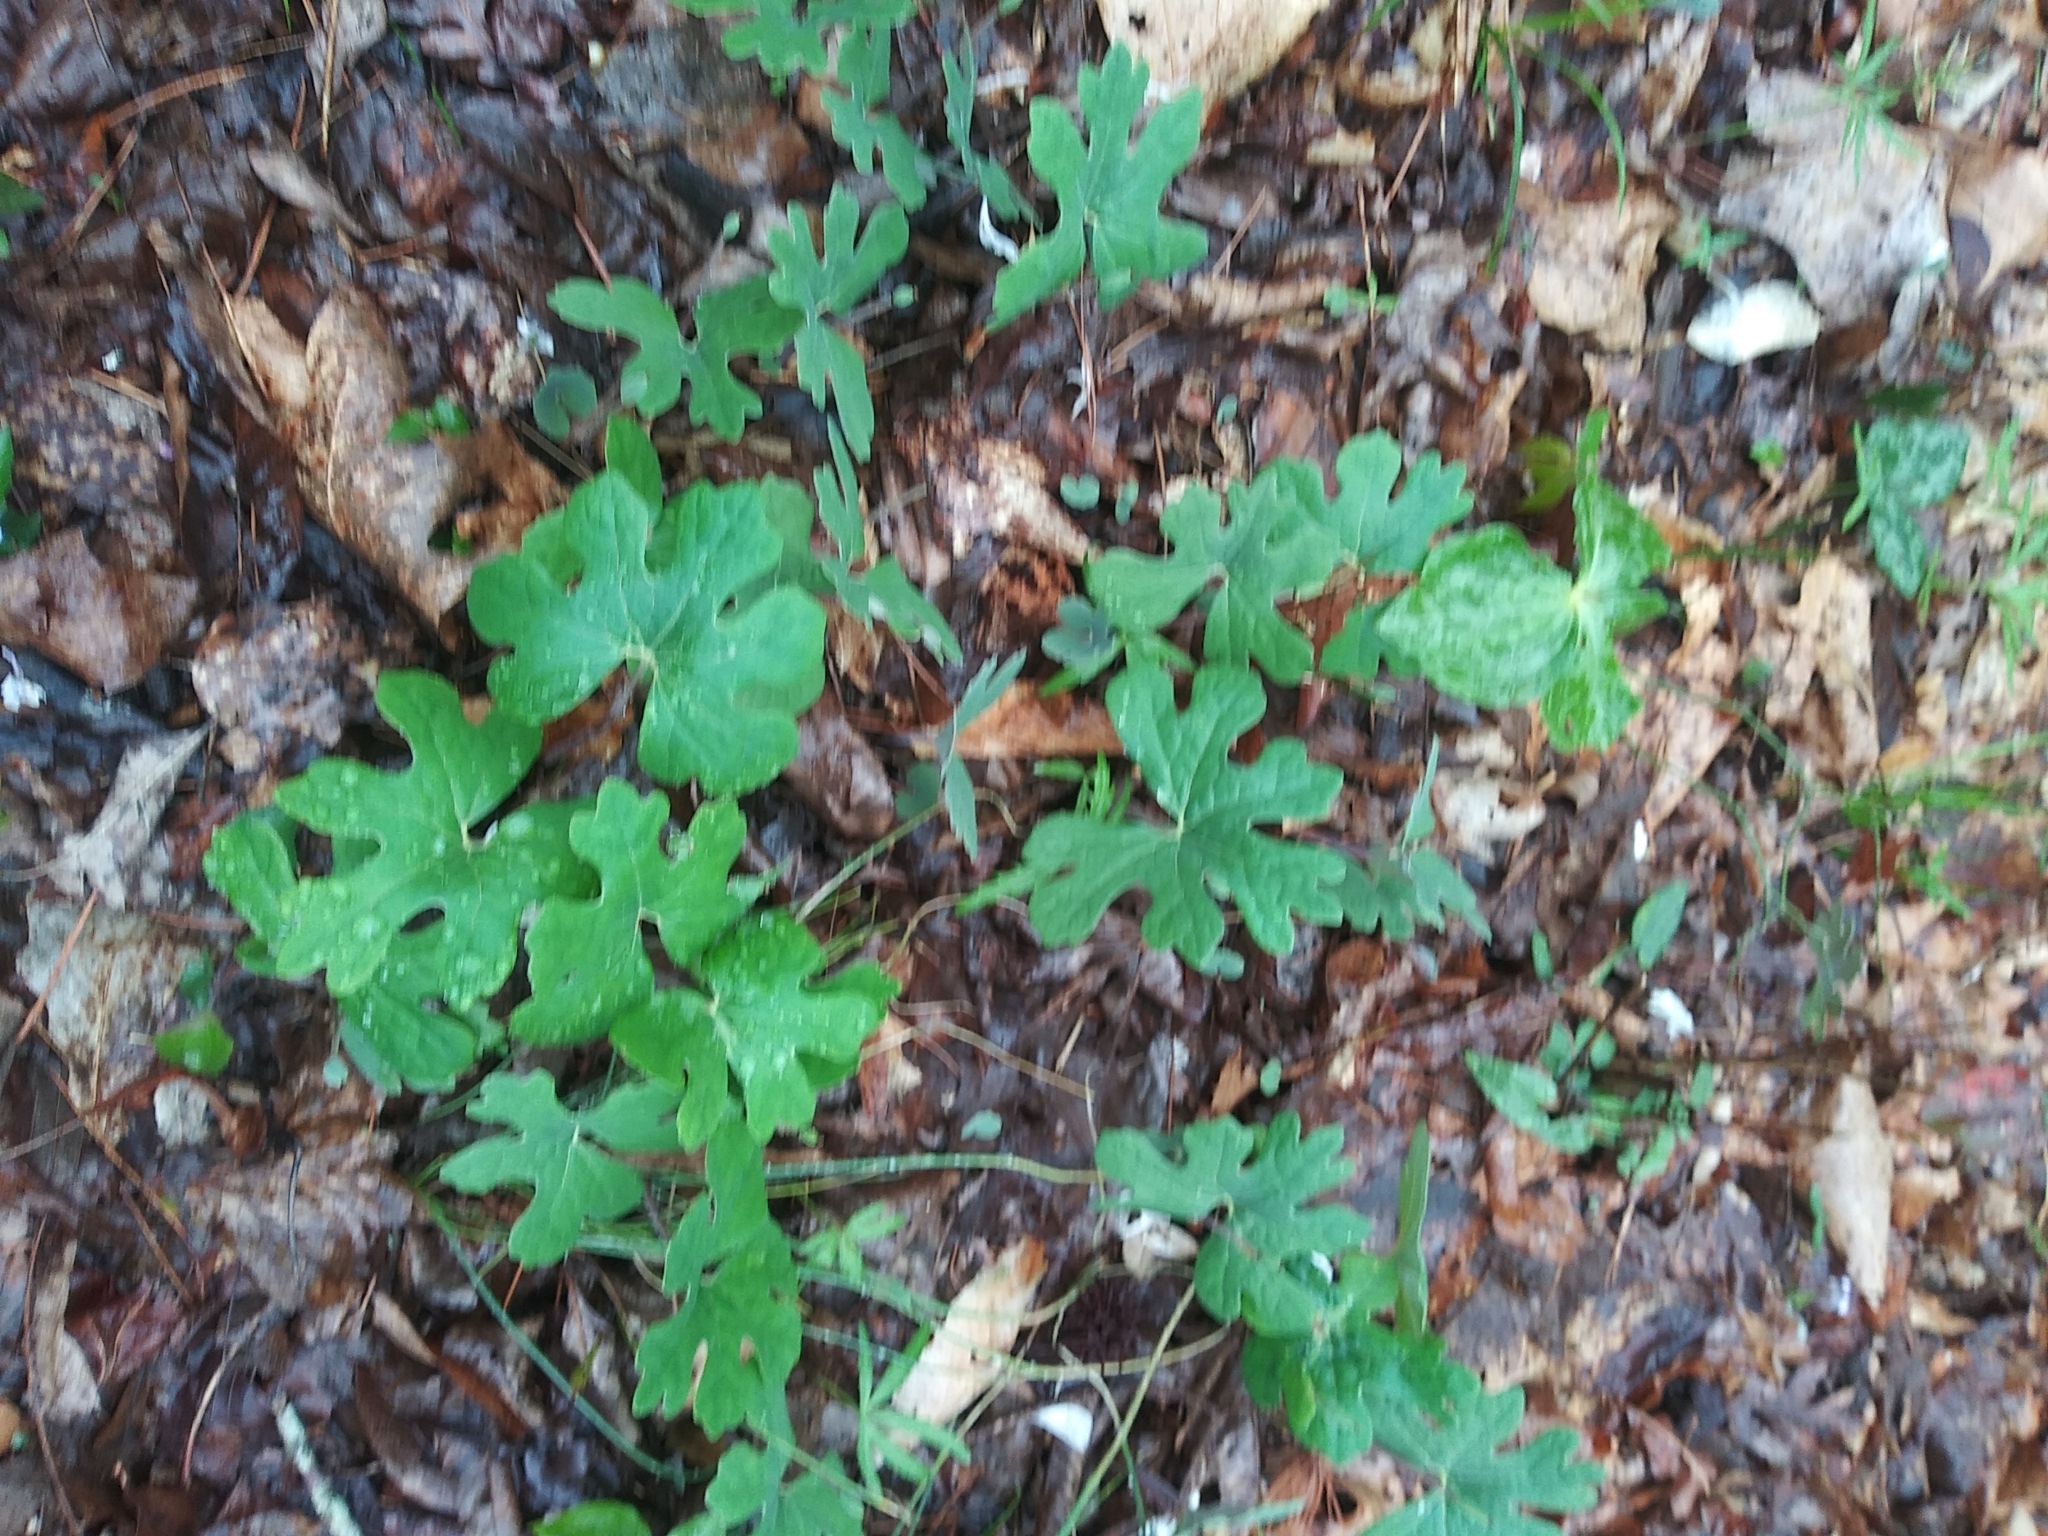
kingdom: Plantae
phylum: Tracheophyta
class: Magnoliopsida
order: Ranunculales
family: Papaveraceae
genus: Sanguinaria
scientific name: Sanguinaria canadensis
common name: Bloodroot
